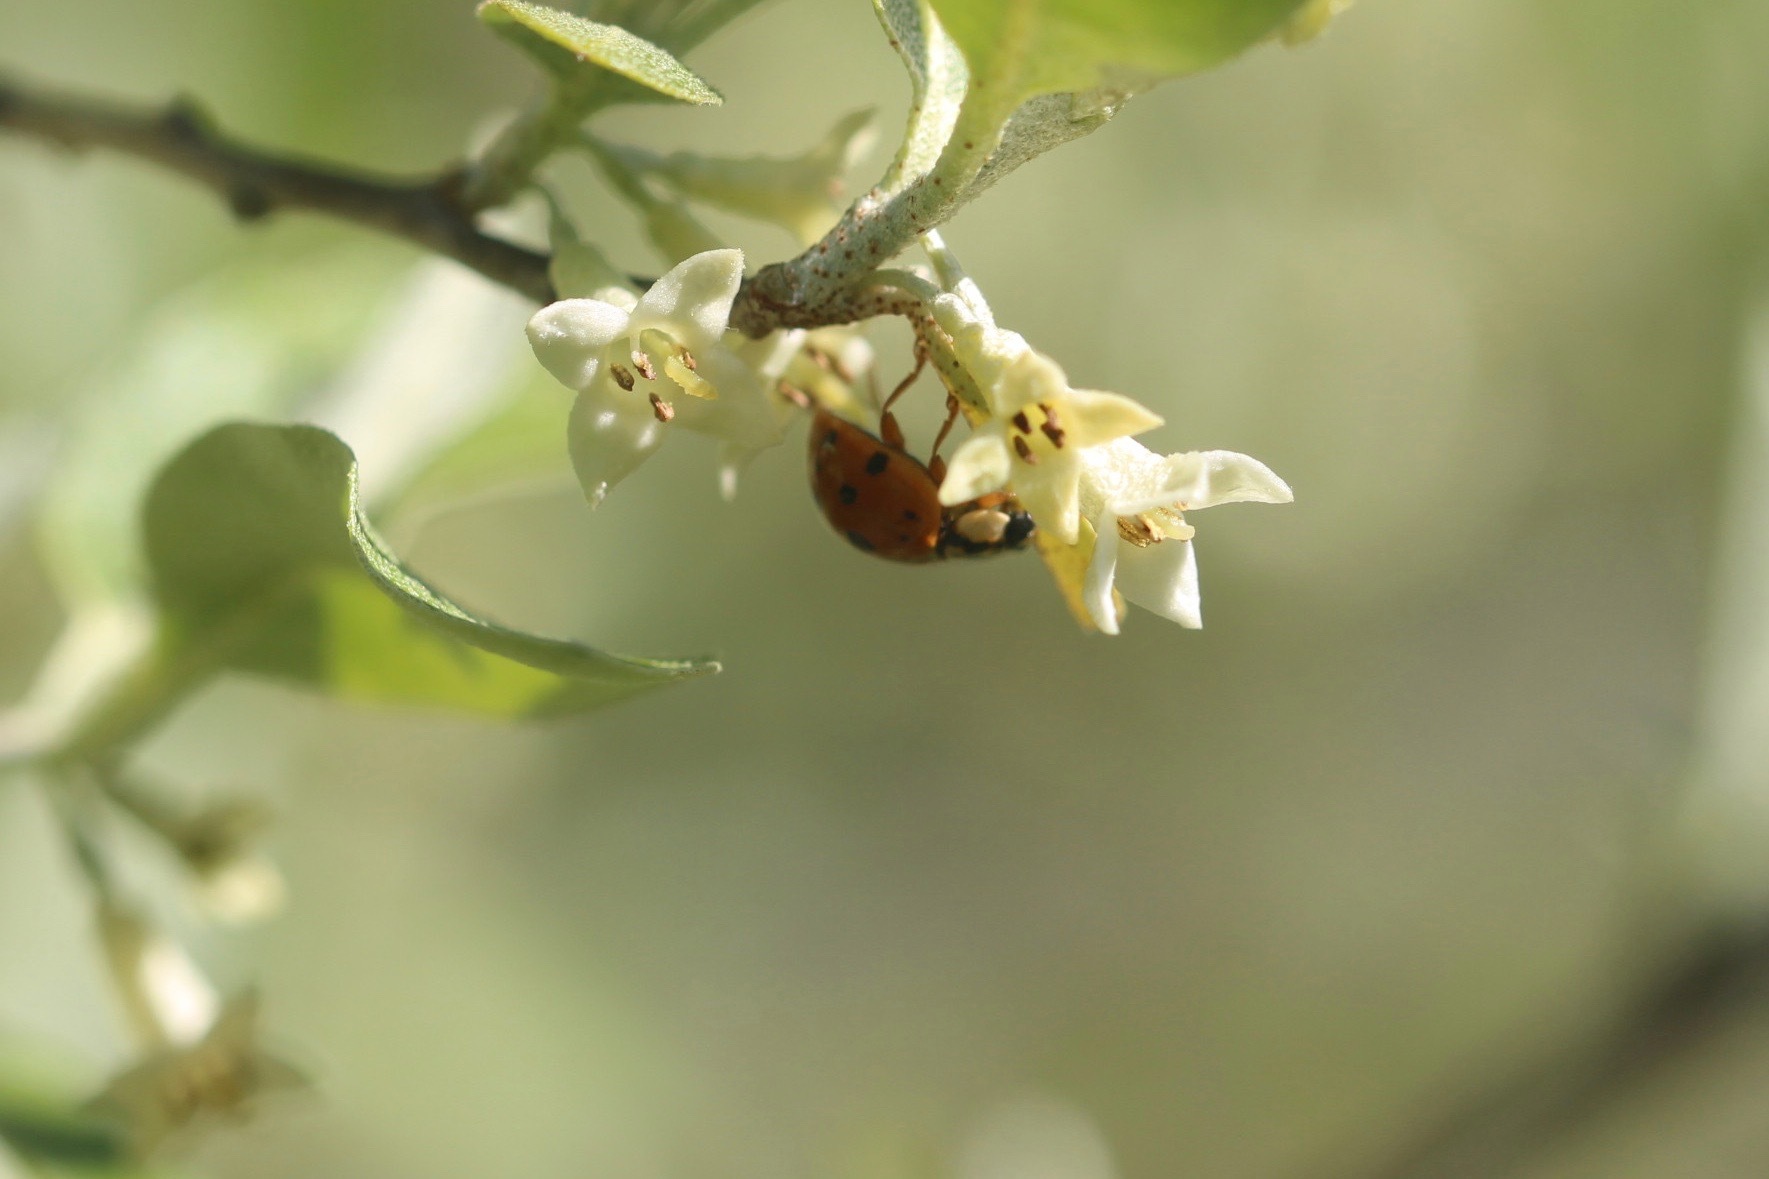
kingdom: Animalia
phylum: Arthropoda
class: Insecta
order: Coleoptera
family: Coccinellidae
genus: Harmonia
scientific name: Harmonia axyridis
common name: Harlequin ladybird
